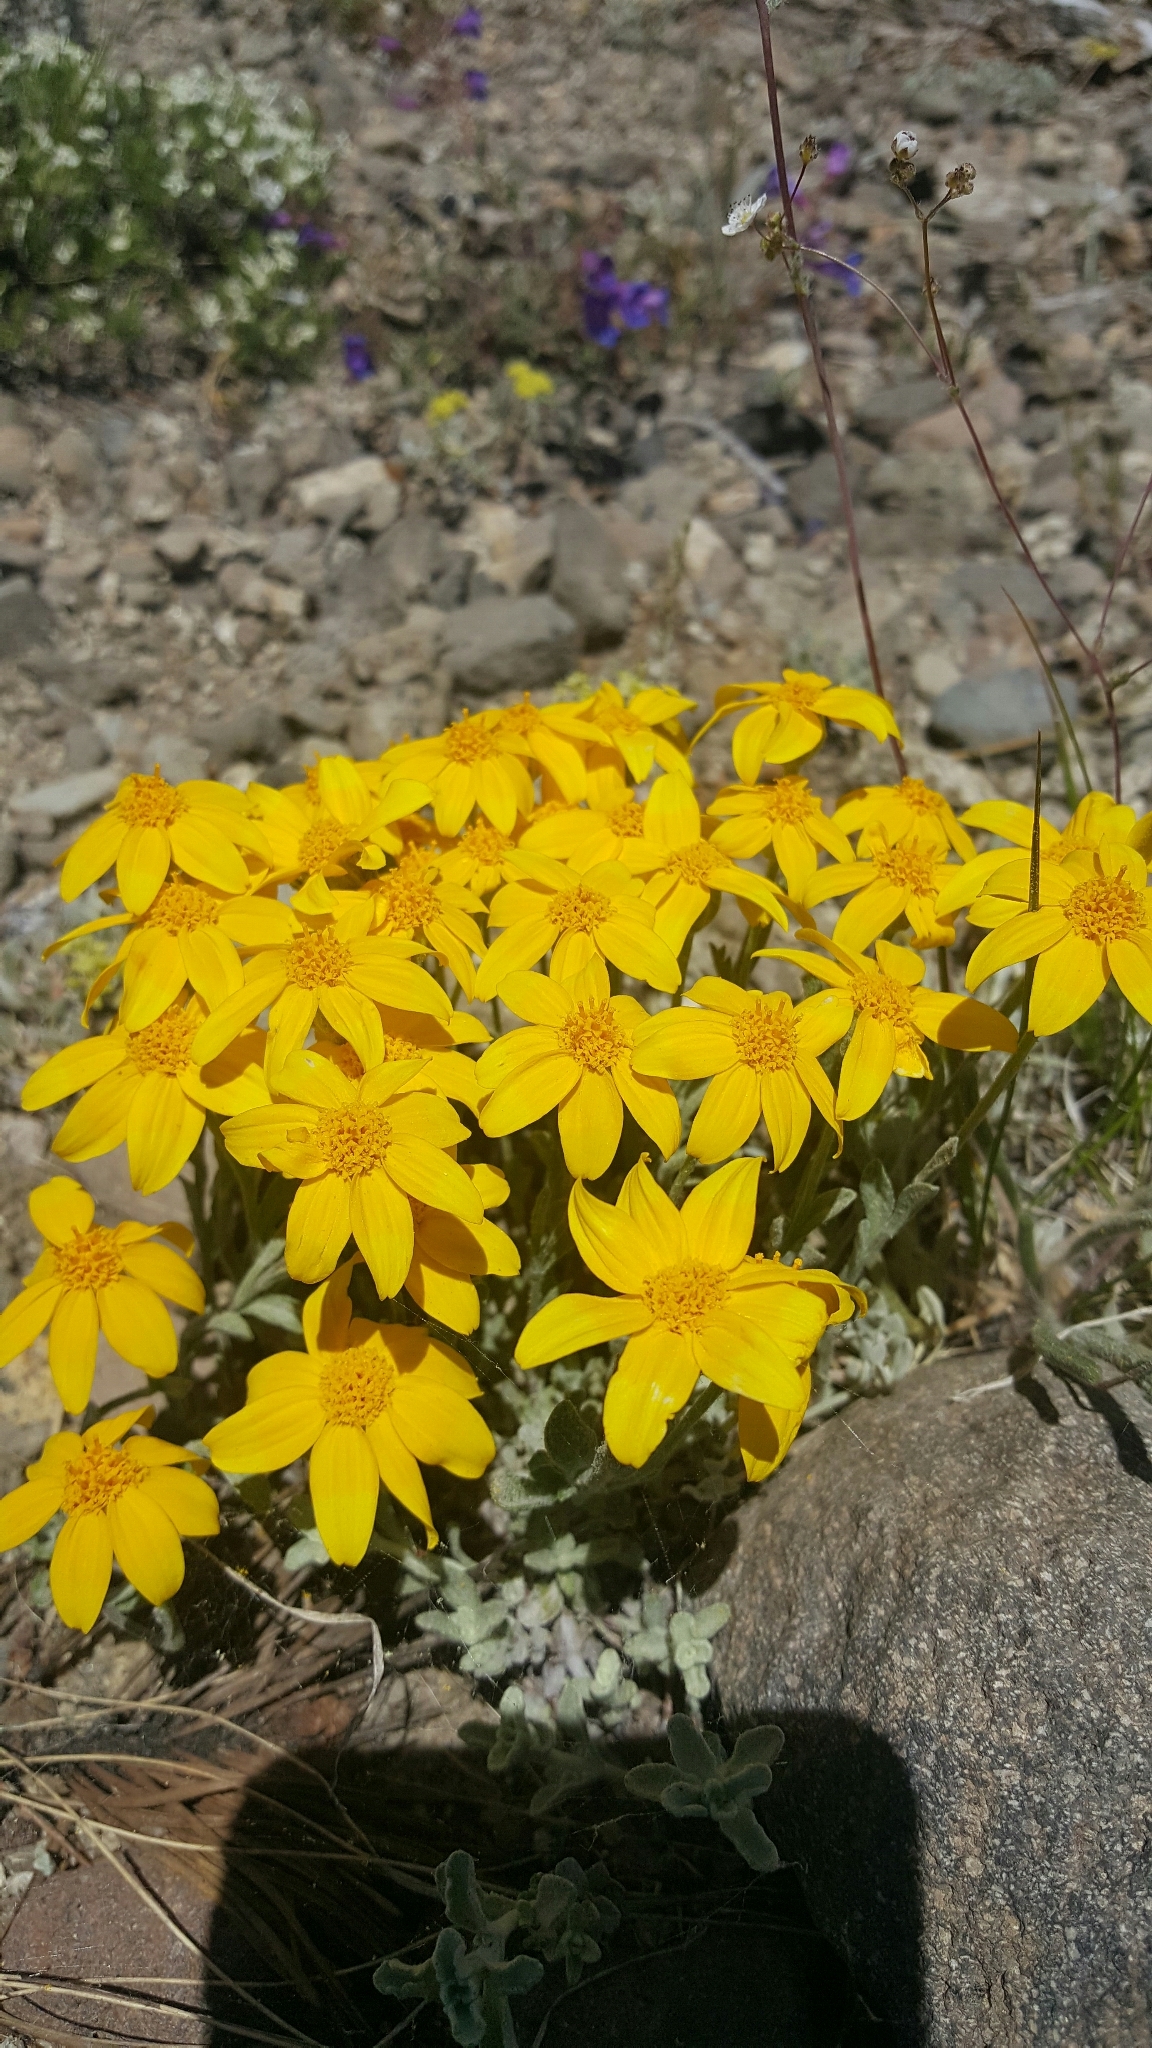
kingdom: Plantae
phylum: Tracheophyta
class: Magnoliopsida
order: Asterales
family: Asteraceae
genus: Eriophyllum
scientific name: Eriophyllum lanatum
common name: Common woolly-sunflower
